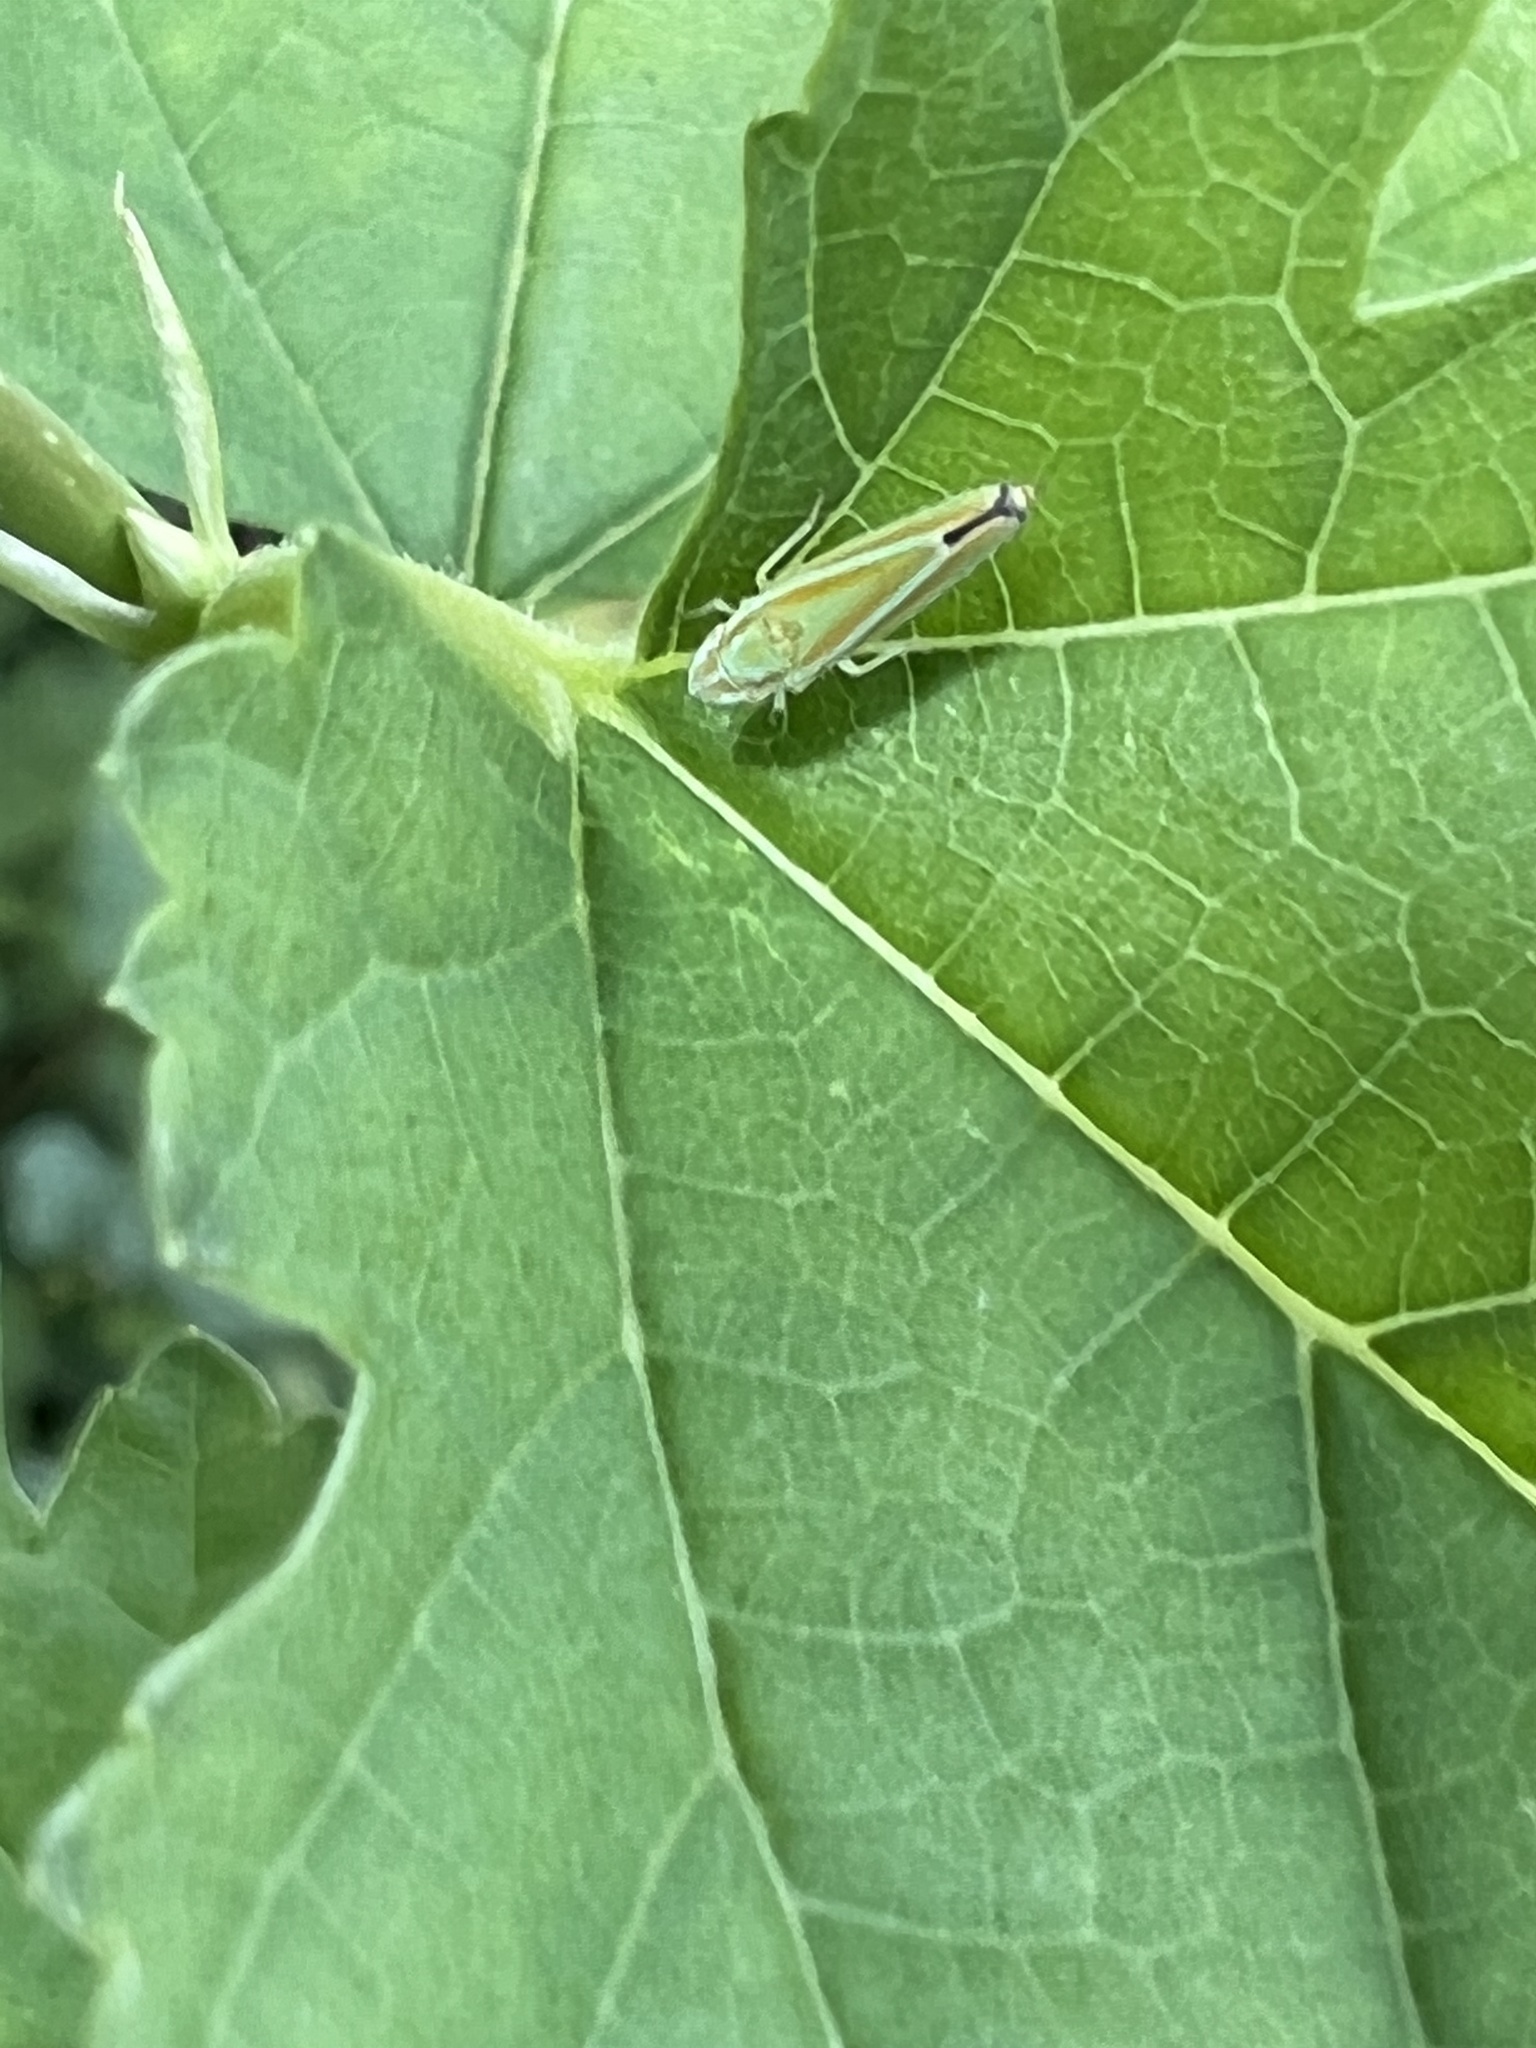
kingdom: Animalia
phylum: Arthropoda
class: Insecta
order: Hemiptera
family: Cicadellidae
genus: Graphocephala
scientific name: Graphocephala versuta
